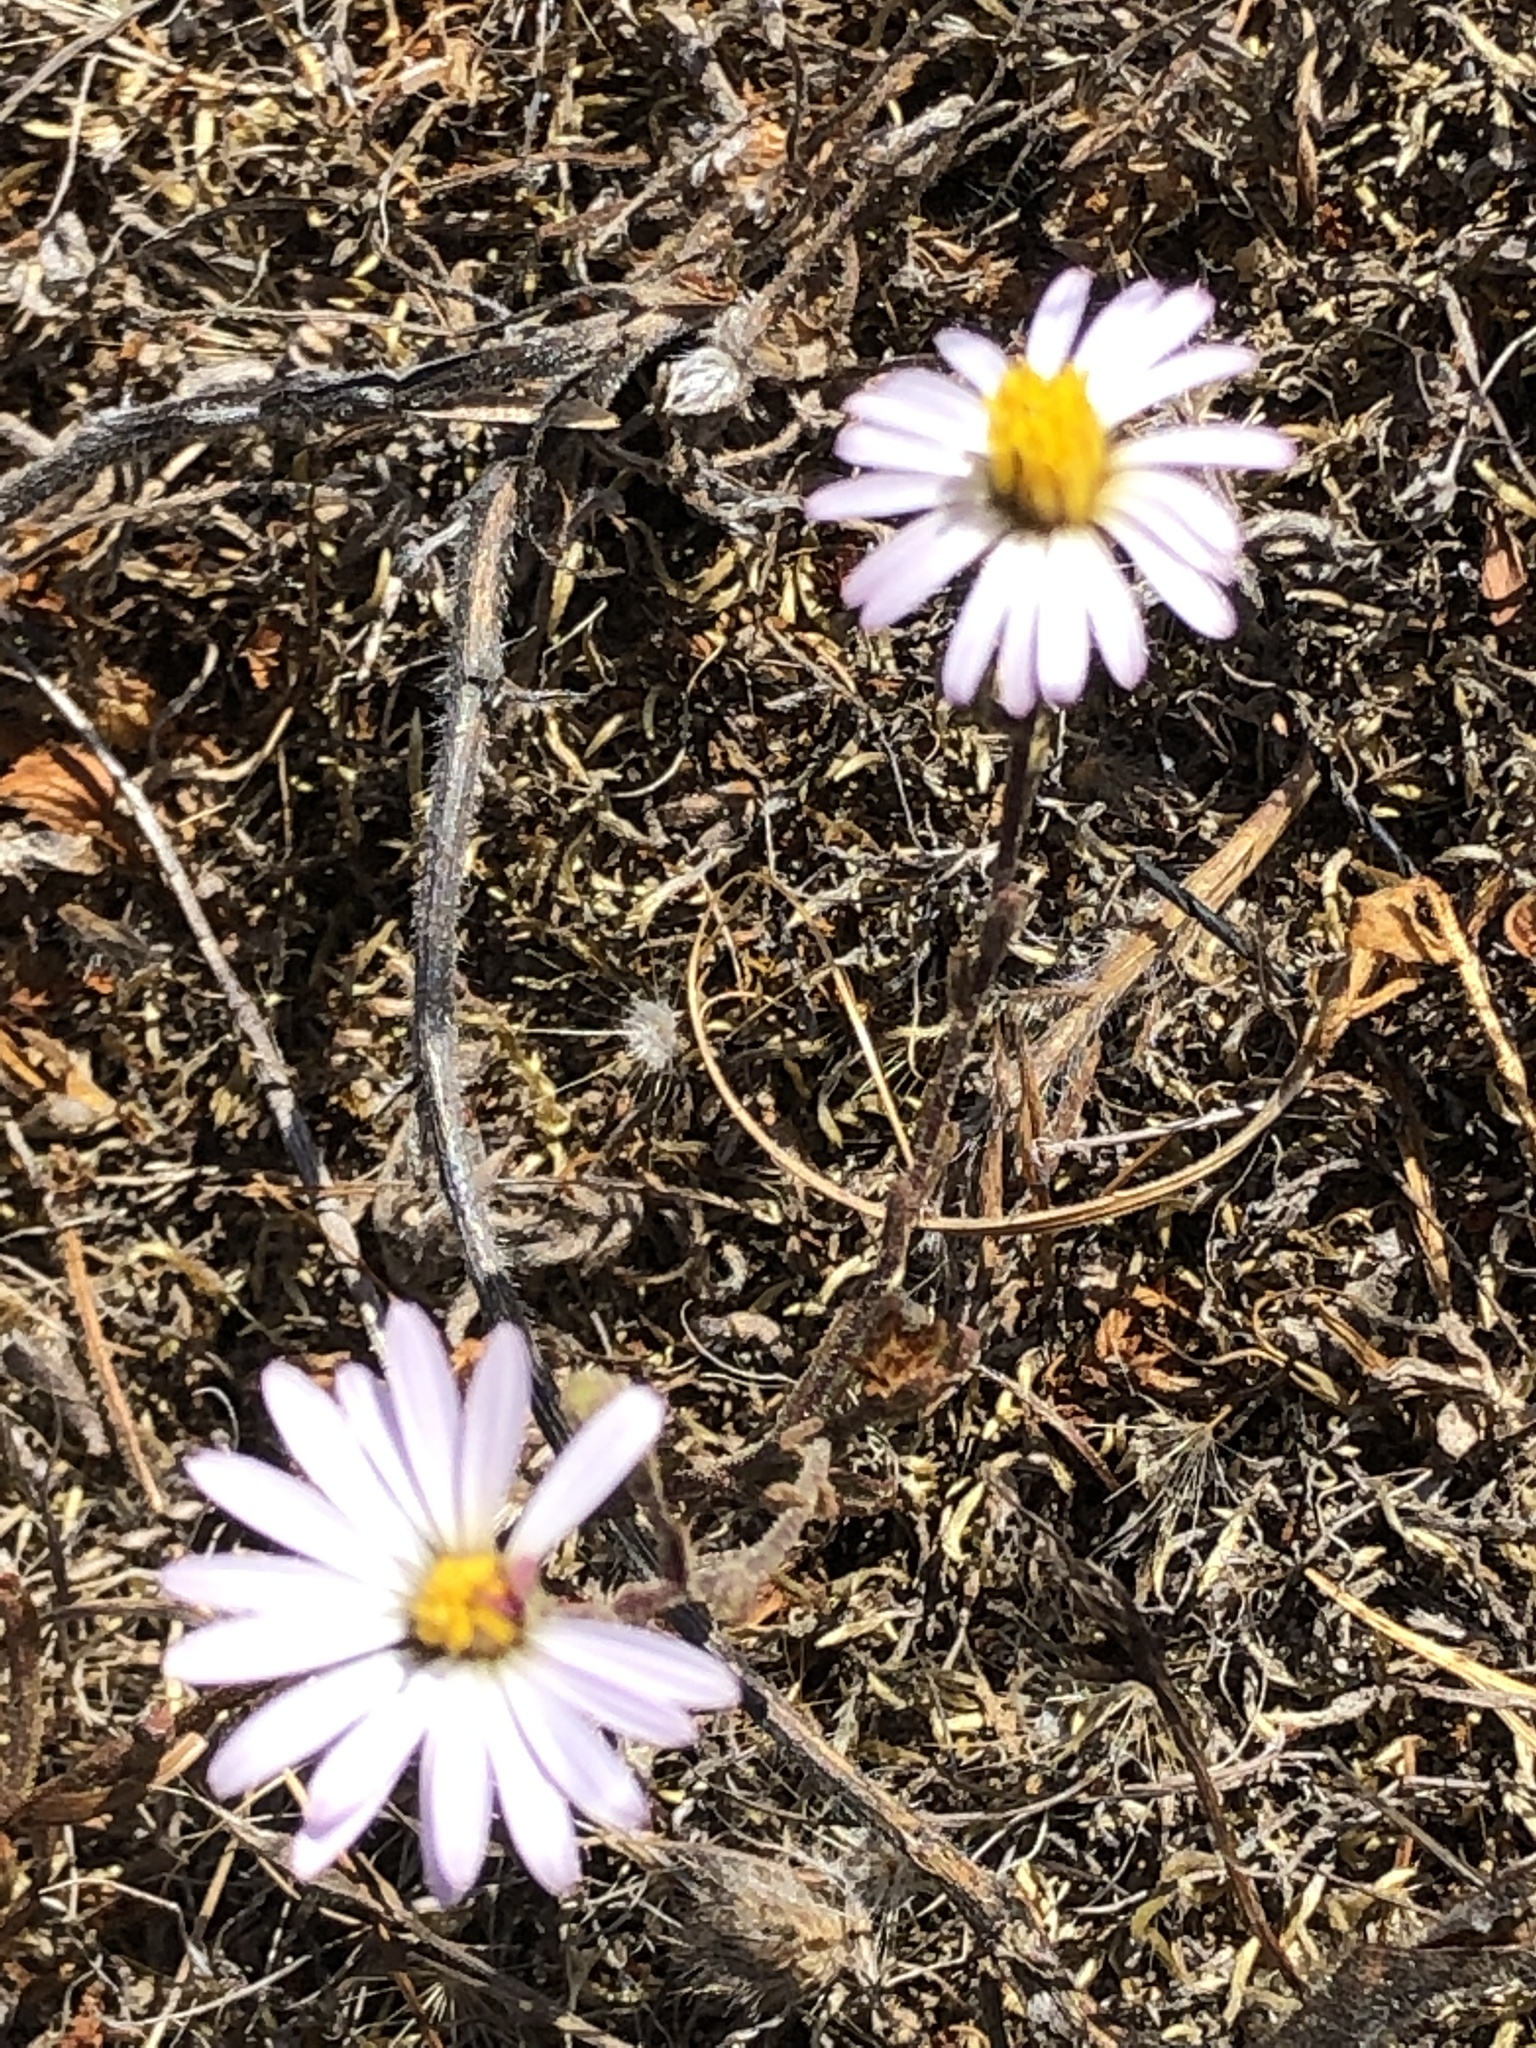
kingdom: Plantae
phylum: Tracheophyta
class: Magnoliopsida
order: Asterales
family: Asteraceae
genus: Corethrogyne
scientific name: Corethrogyne filaginifolia
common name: Sand-aster
